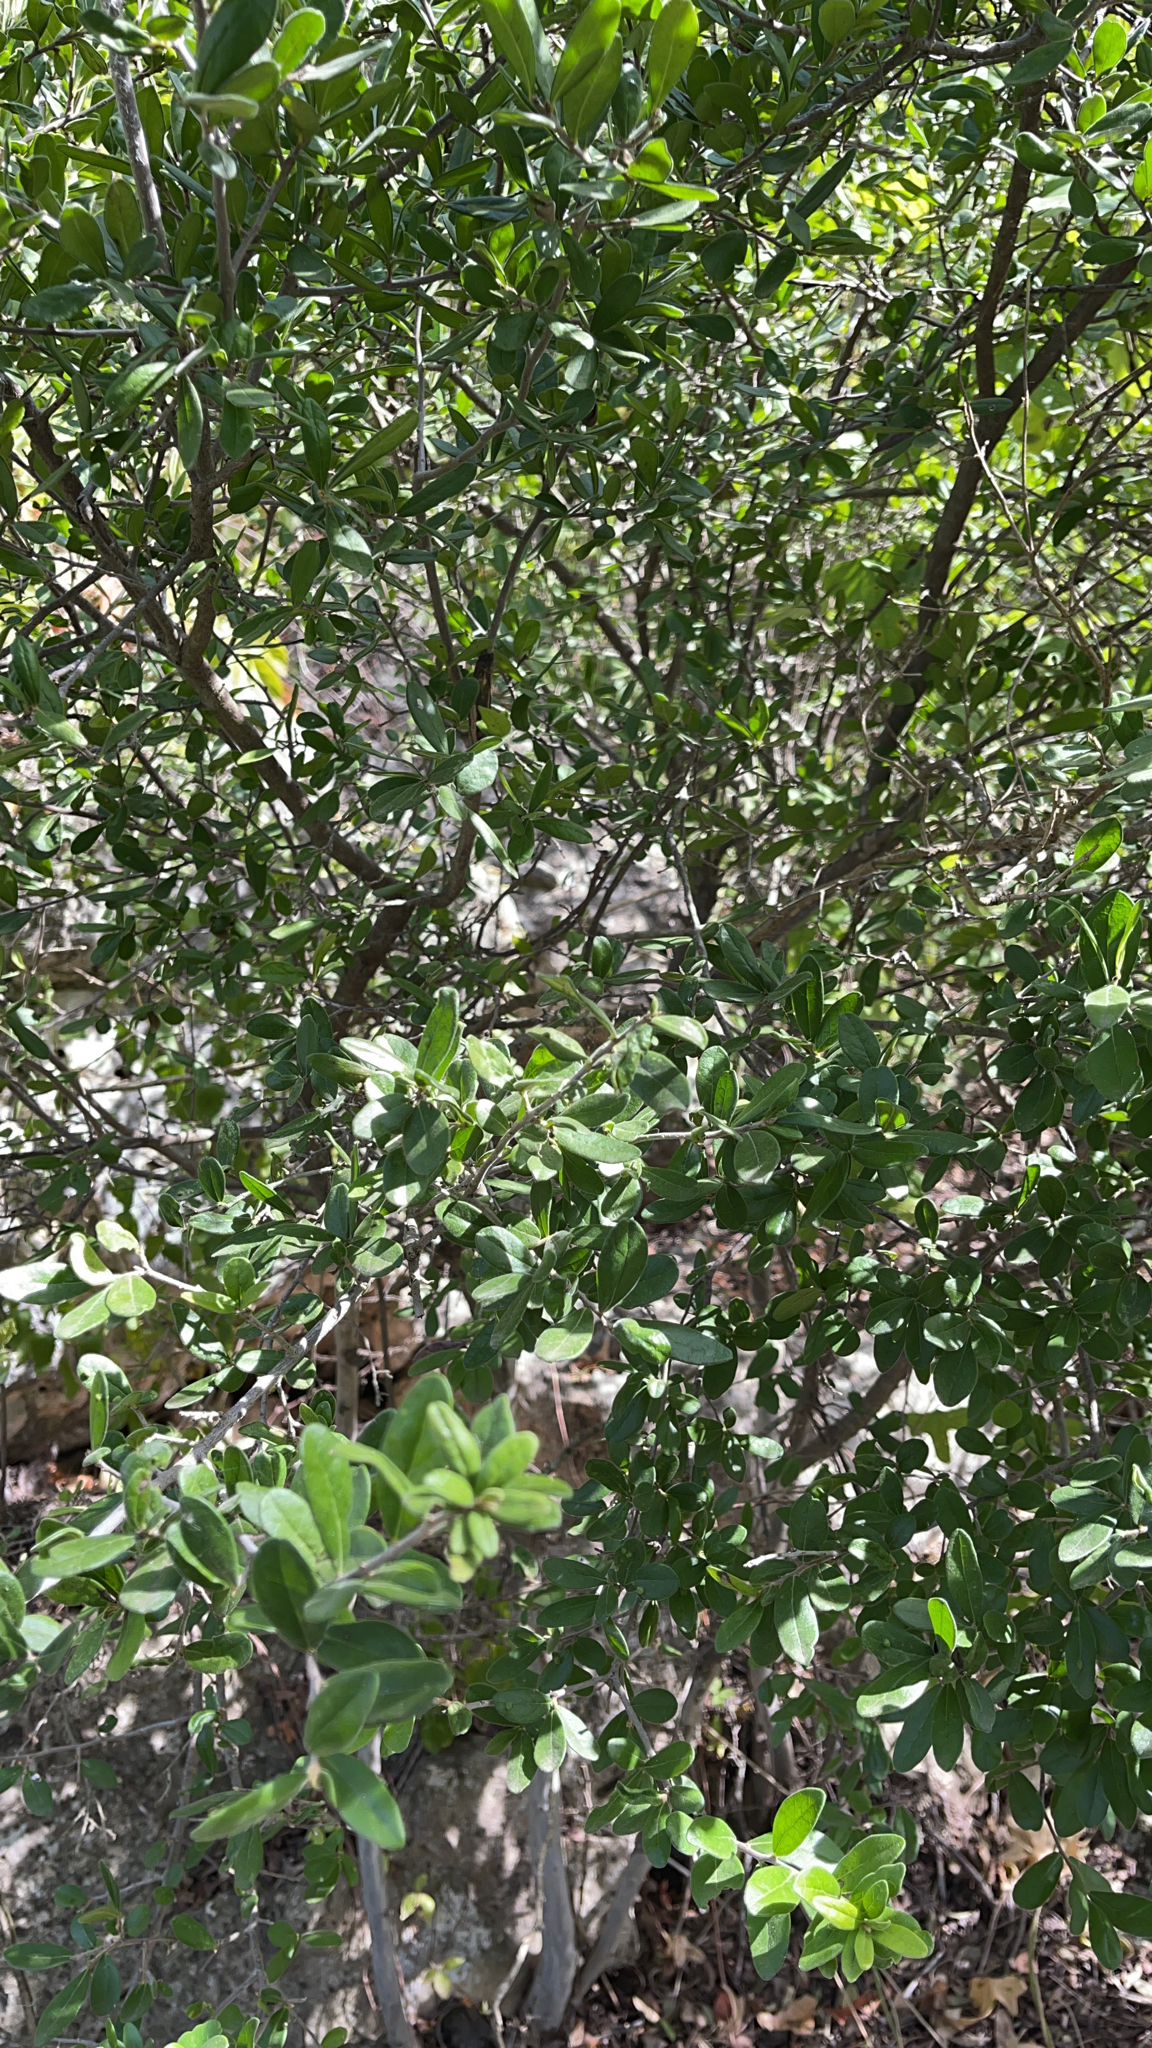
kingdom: Plantae
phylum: Tracheophyta
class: Magnoliopsida
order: Ericales
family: Ebenaceae
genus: Diospyros
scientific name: Diospyros texana
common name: Texas persimmon
